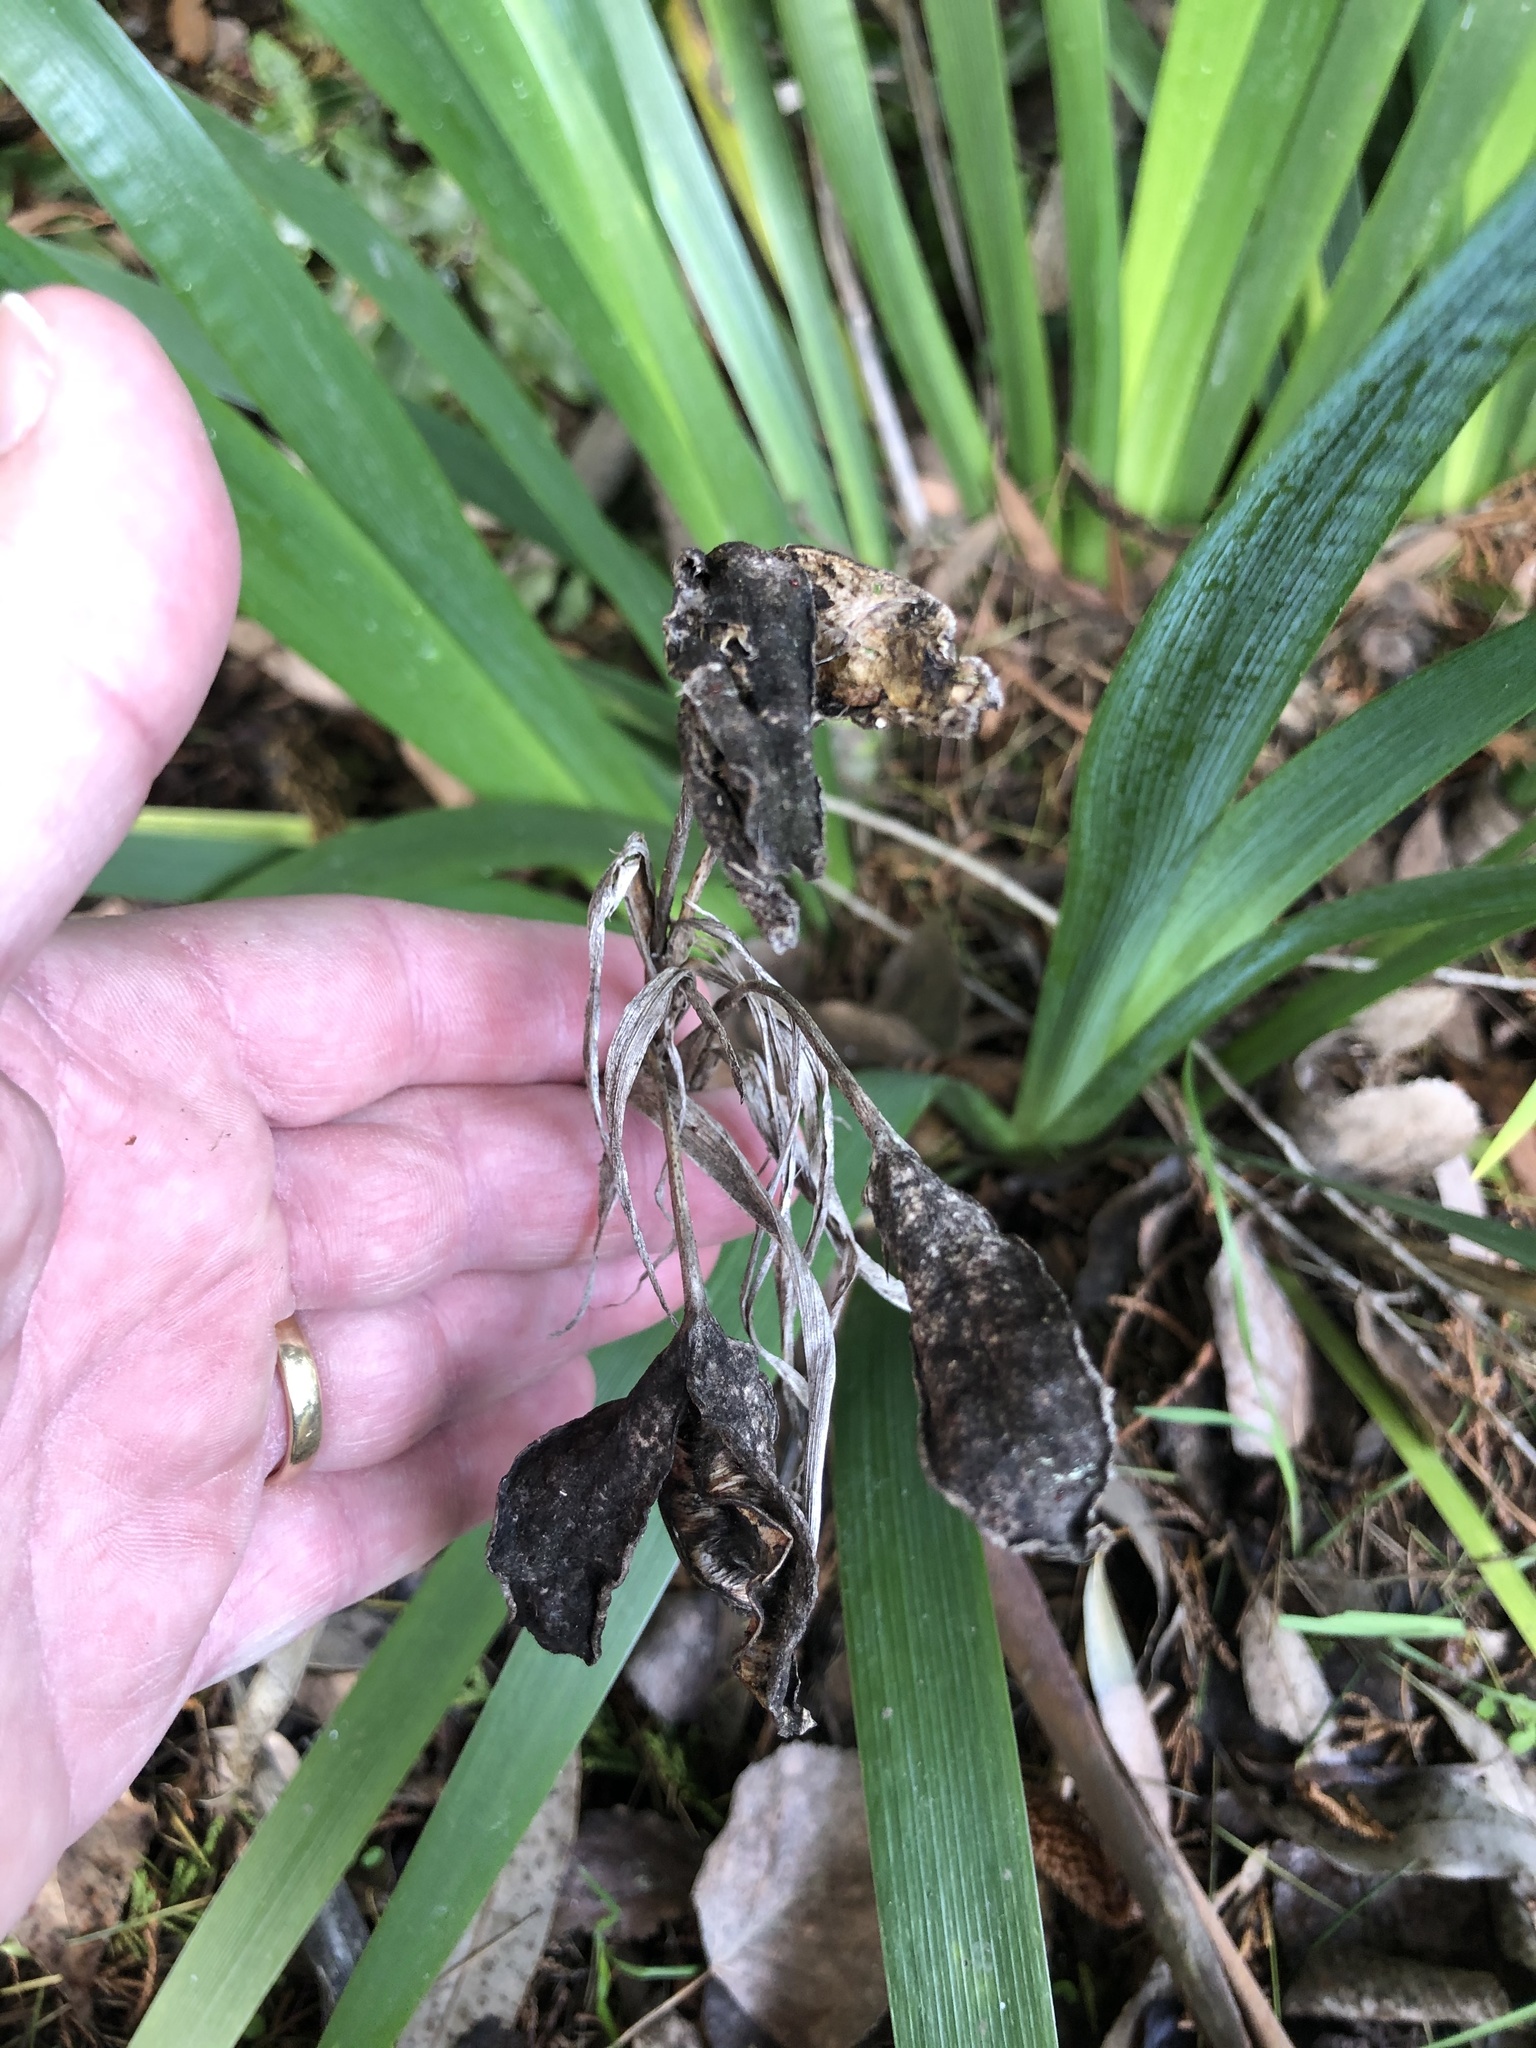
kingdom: Plantae
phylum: Tracheophyta
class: Liliopsida
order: Asparagales
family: Iridaceae
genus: Iris
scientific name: Iris foetidissima
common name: Stinking iris
